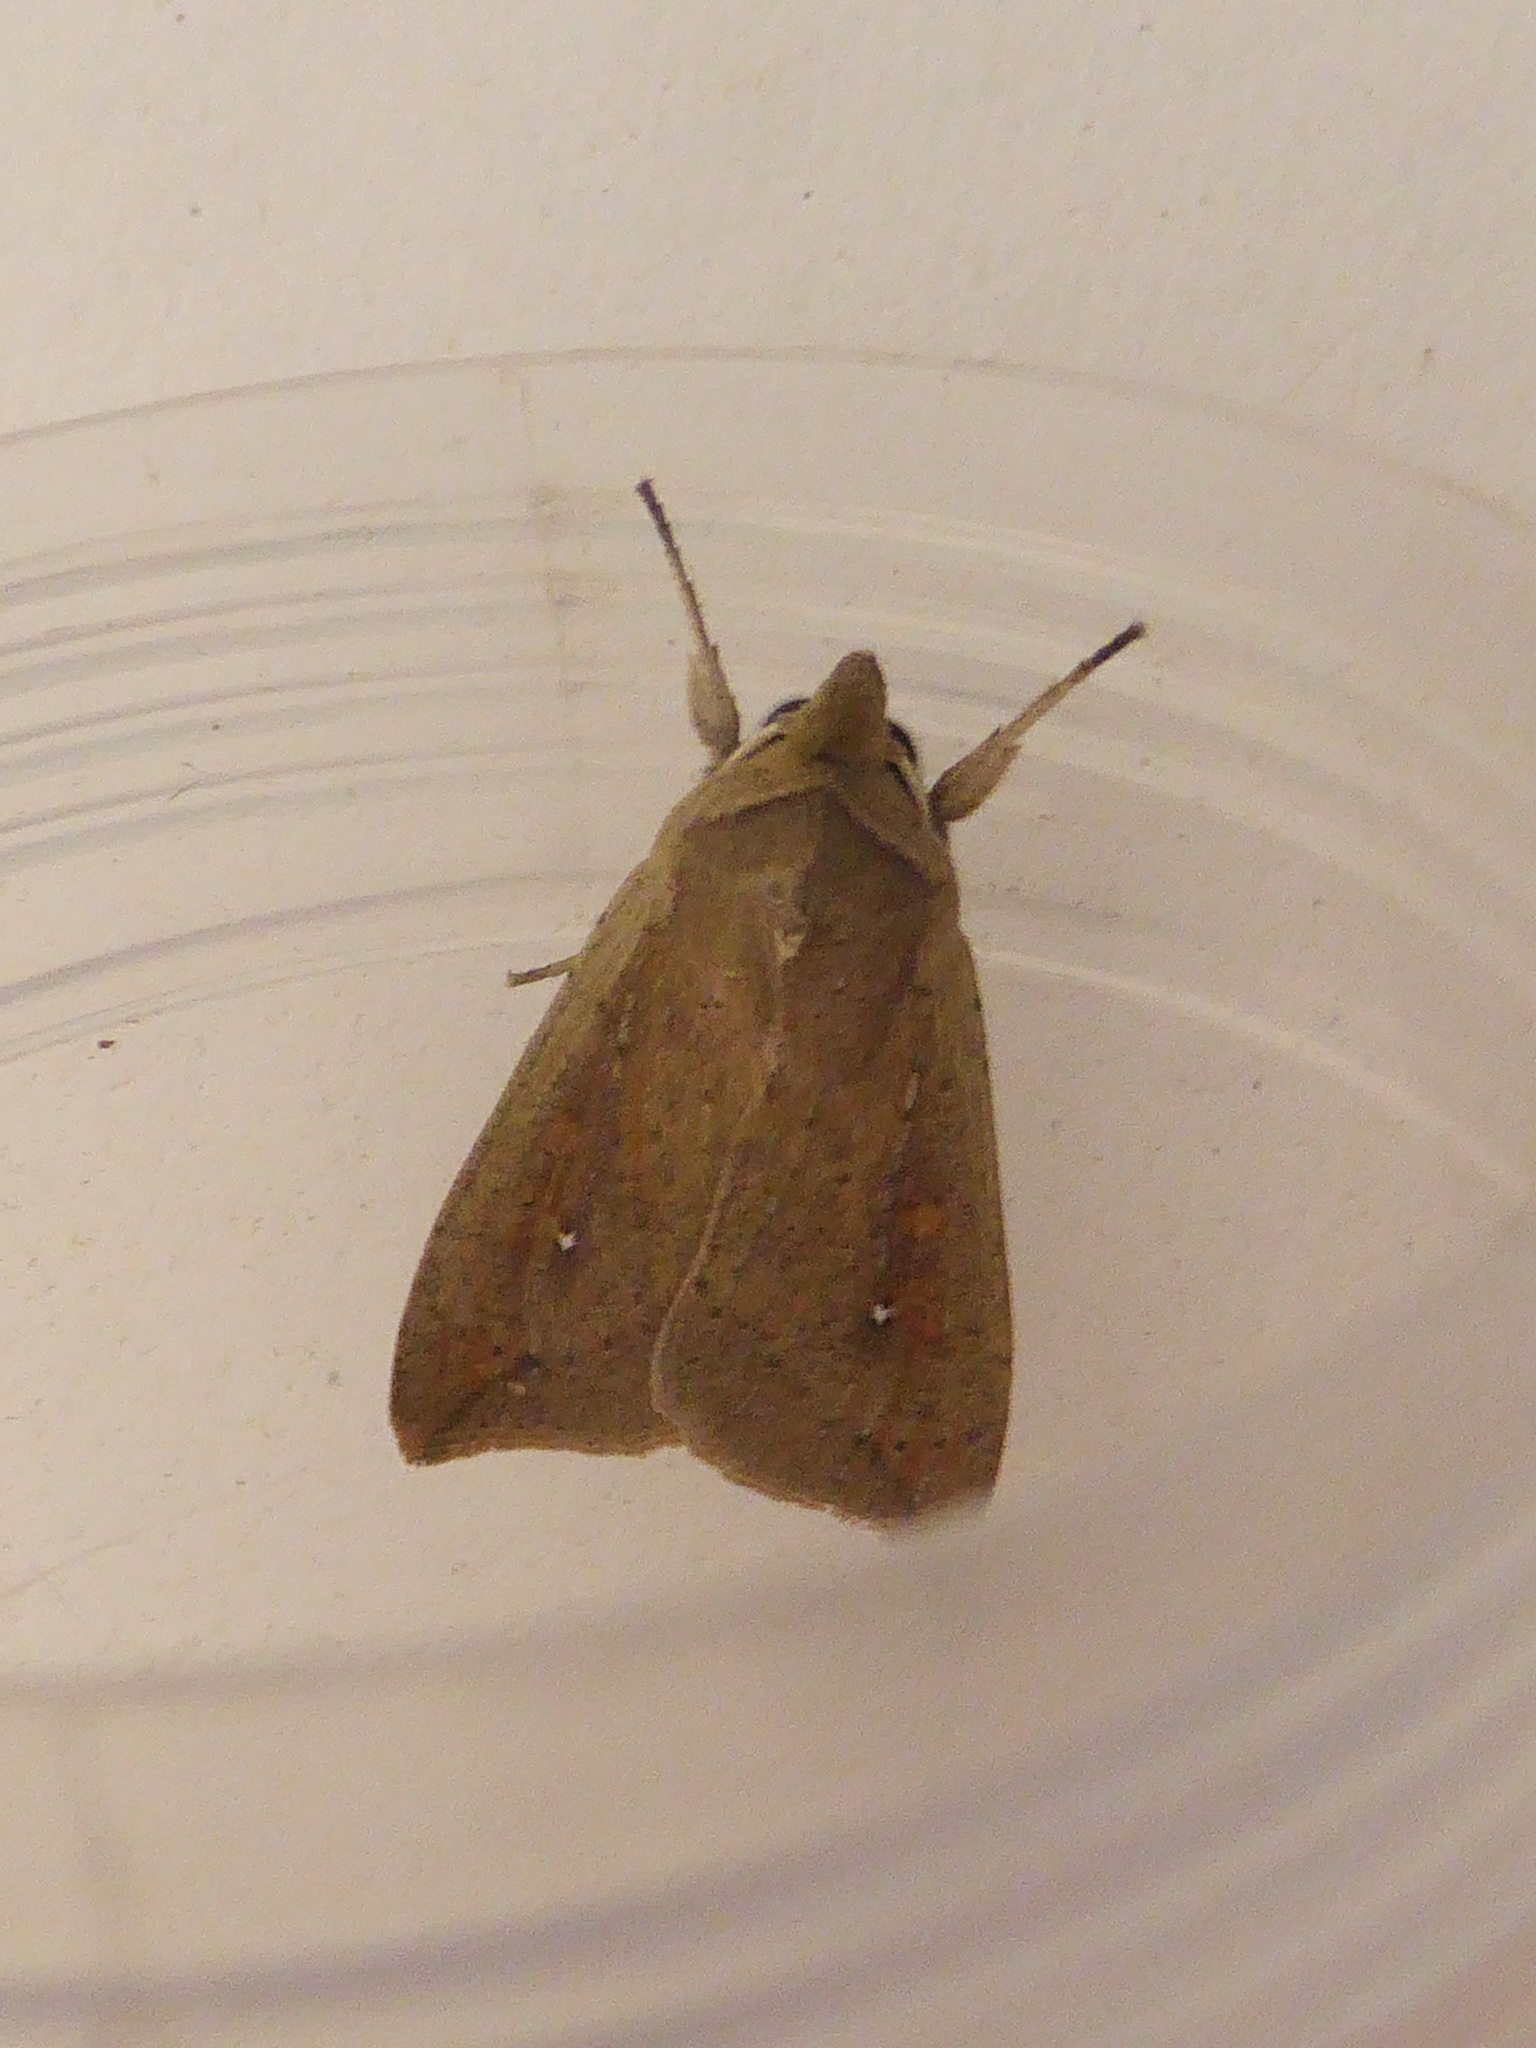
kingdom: Animalia
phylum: Arthropoda
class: Insecta
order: Lepidoptera
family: Noctuidae
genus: Mythimna
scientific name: Mythimna unipuncta
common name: White-speck
